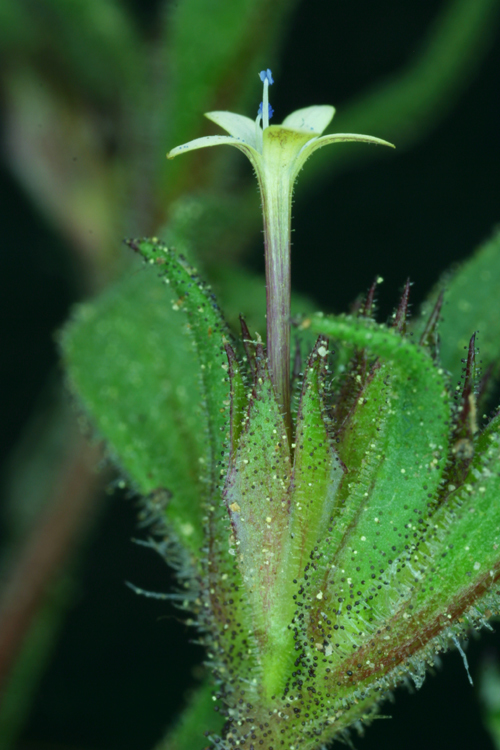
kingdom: Plantae
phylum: Tracheophyta
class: Magnoliopsida
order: Ericales
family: Polemoniaceae
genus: Collomia
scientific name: Collomia tinctoria
